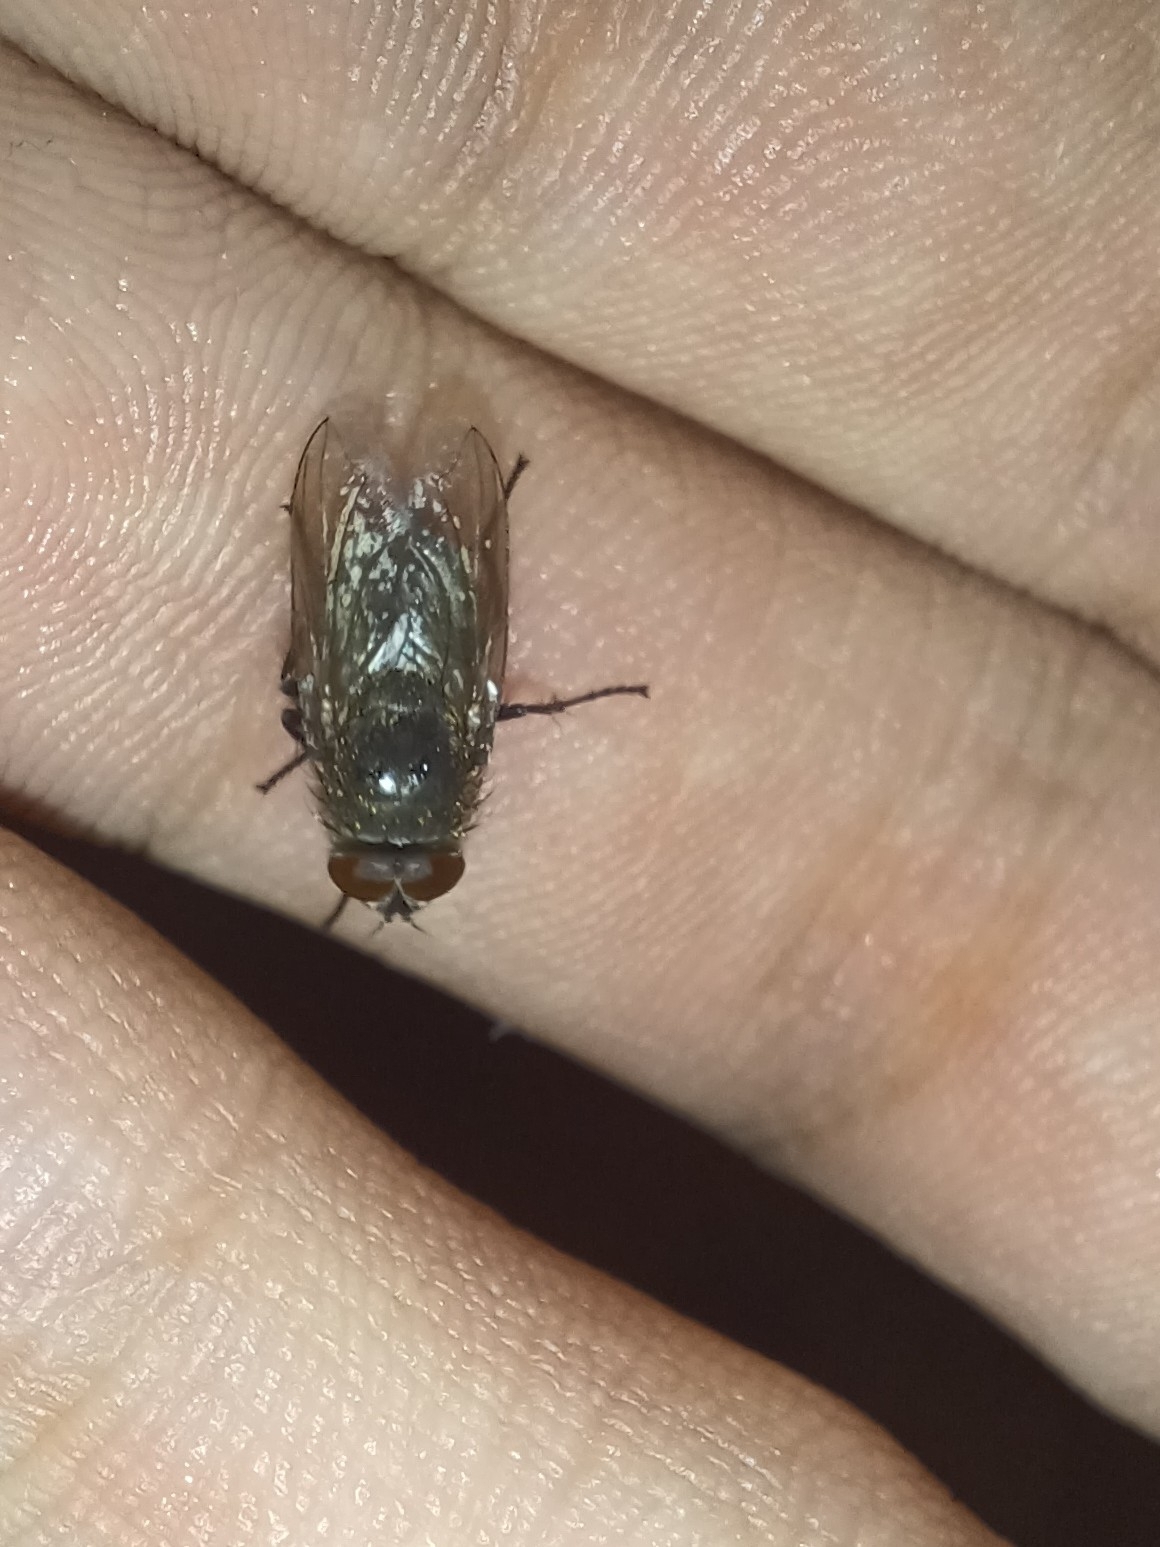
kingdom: Animalia
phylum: Arthropoda
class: Insecta
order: Diptera
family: Polleniidae
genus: Pollenia
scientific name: Pollenia
